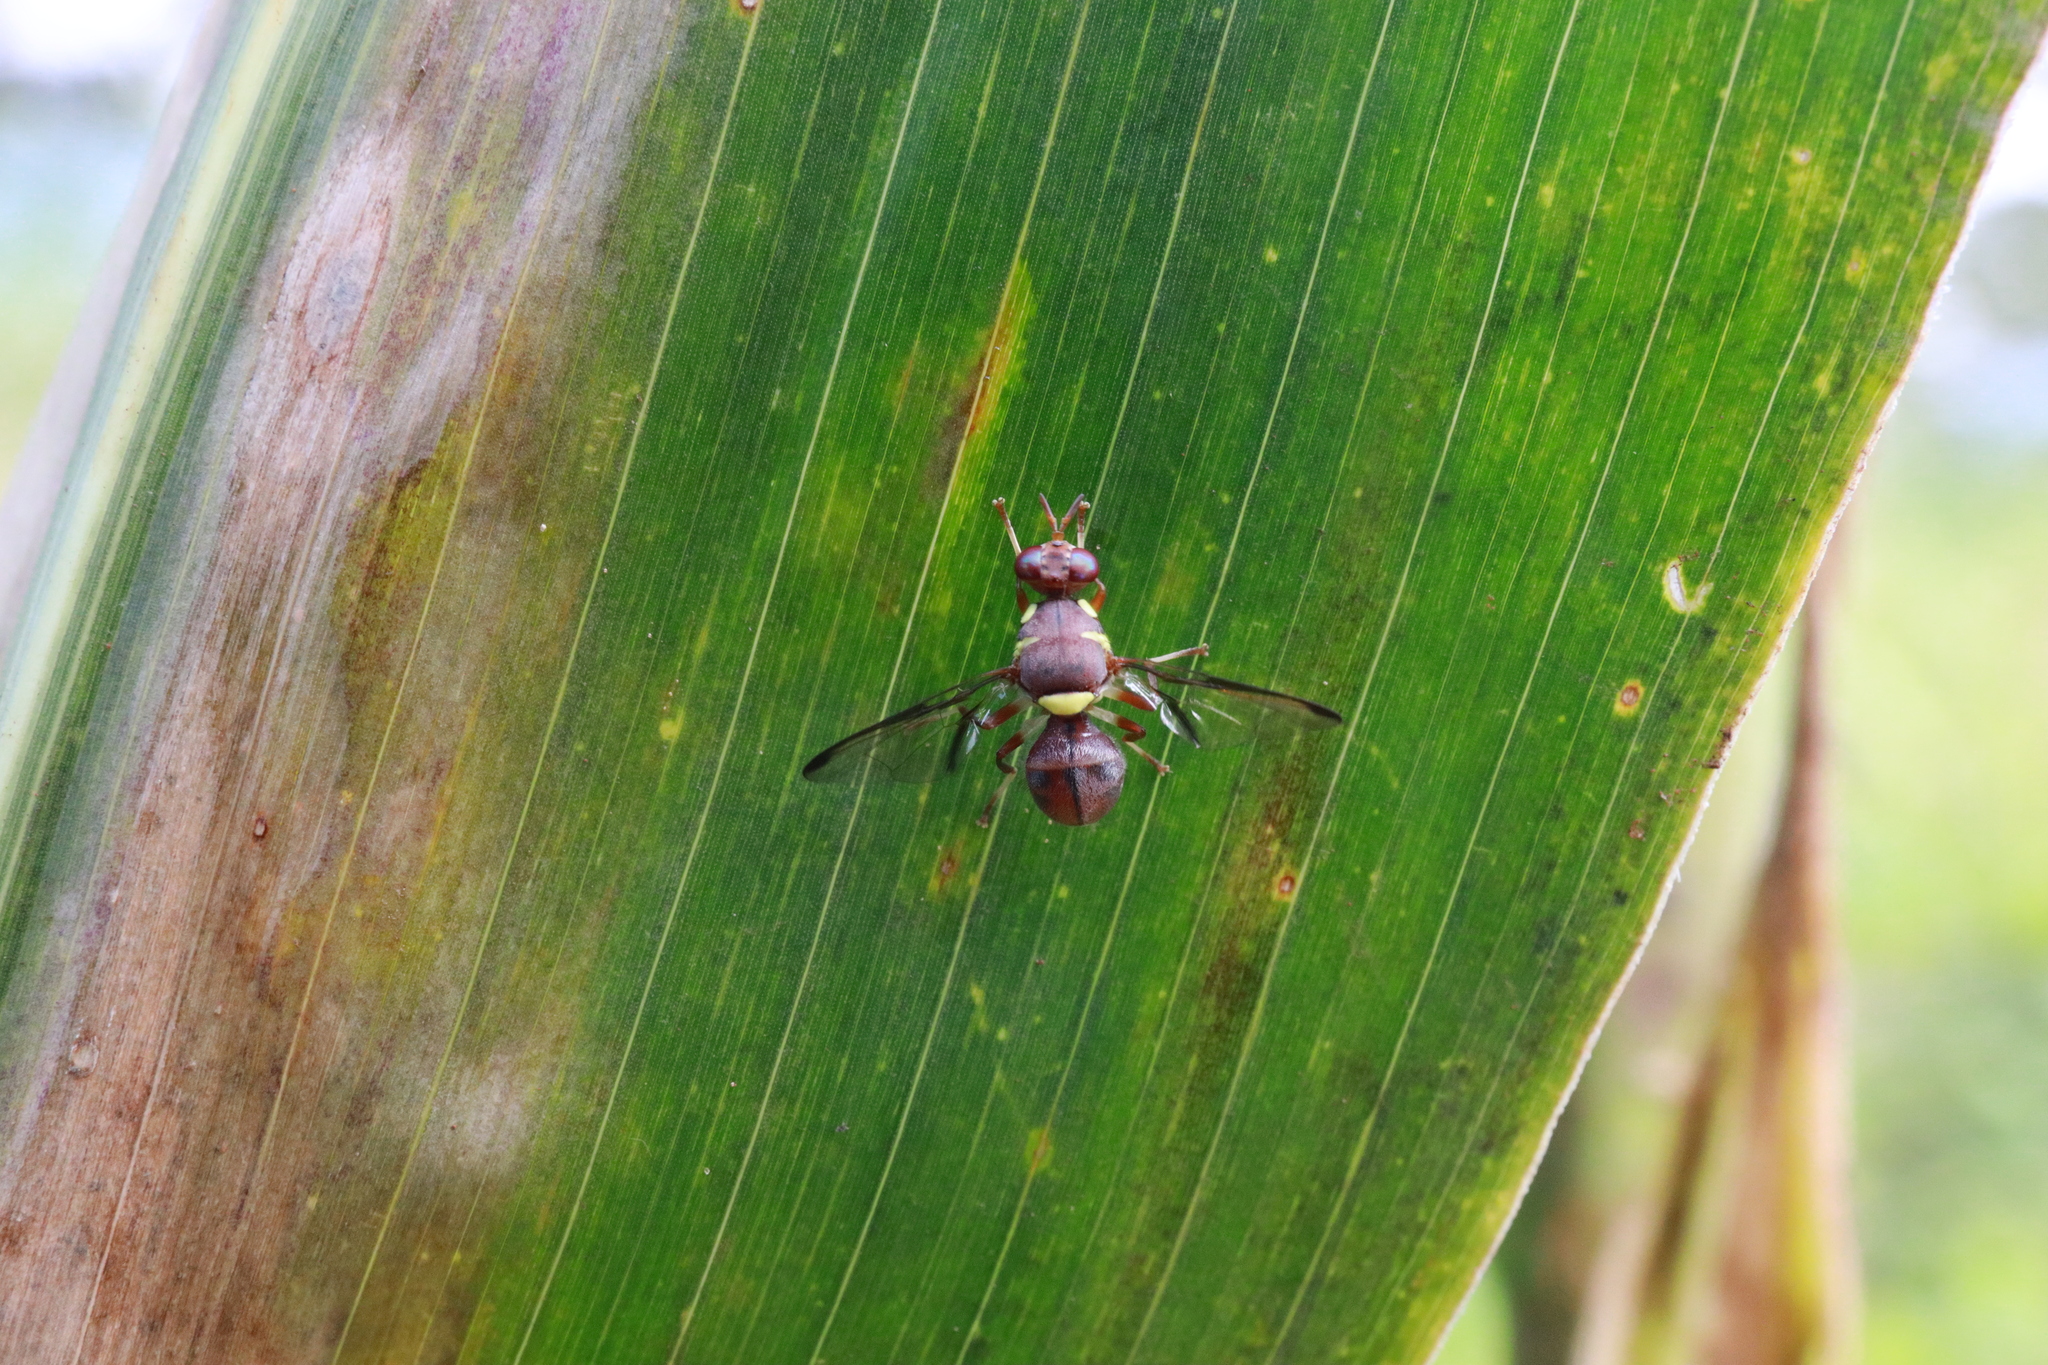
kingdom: Animalia
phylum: Arthropoda
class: Insecta
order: Diptera
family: Tephritidae
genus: Dacus
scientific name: Dacus vertebratus
